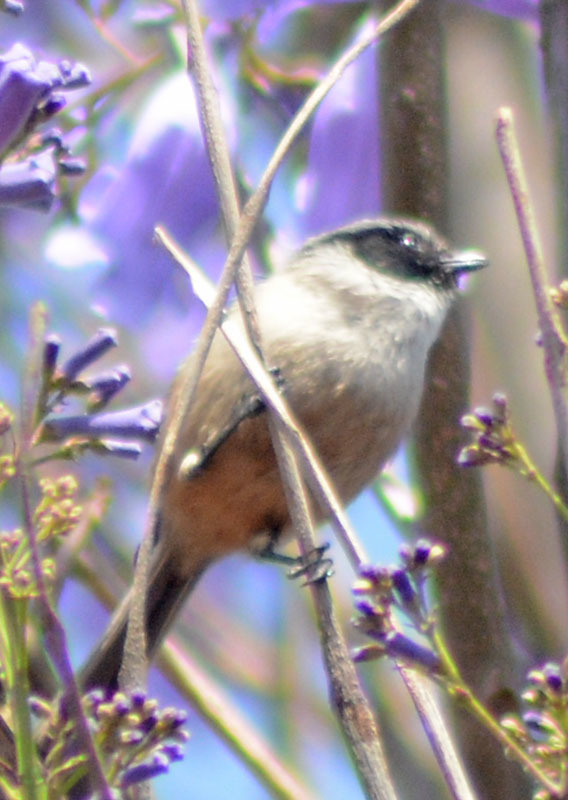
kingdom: Animalia
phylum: Chordata
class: Aves
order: Passeriformes
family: Aegithalidae
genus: Psaltriparus
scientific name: Psaltriparus minimus
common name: American bushtit
